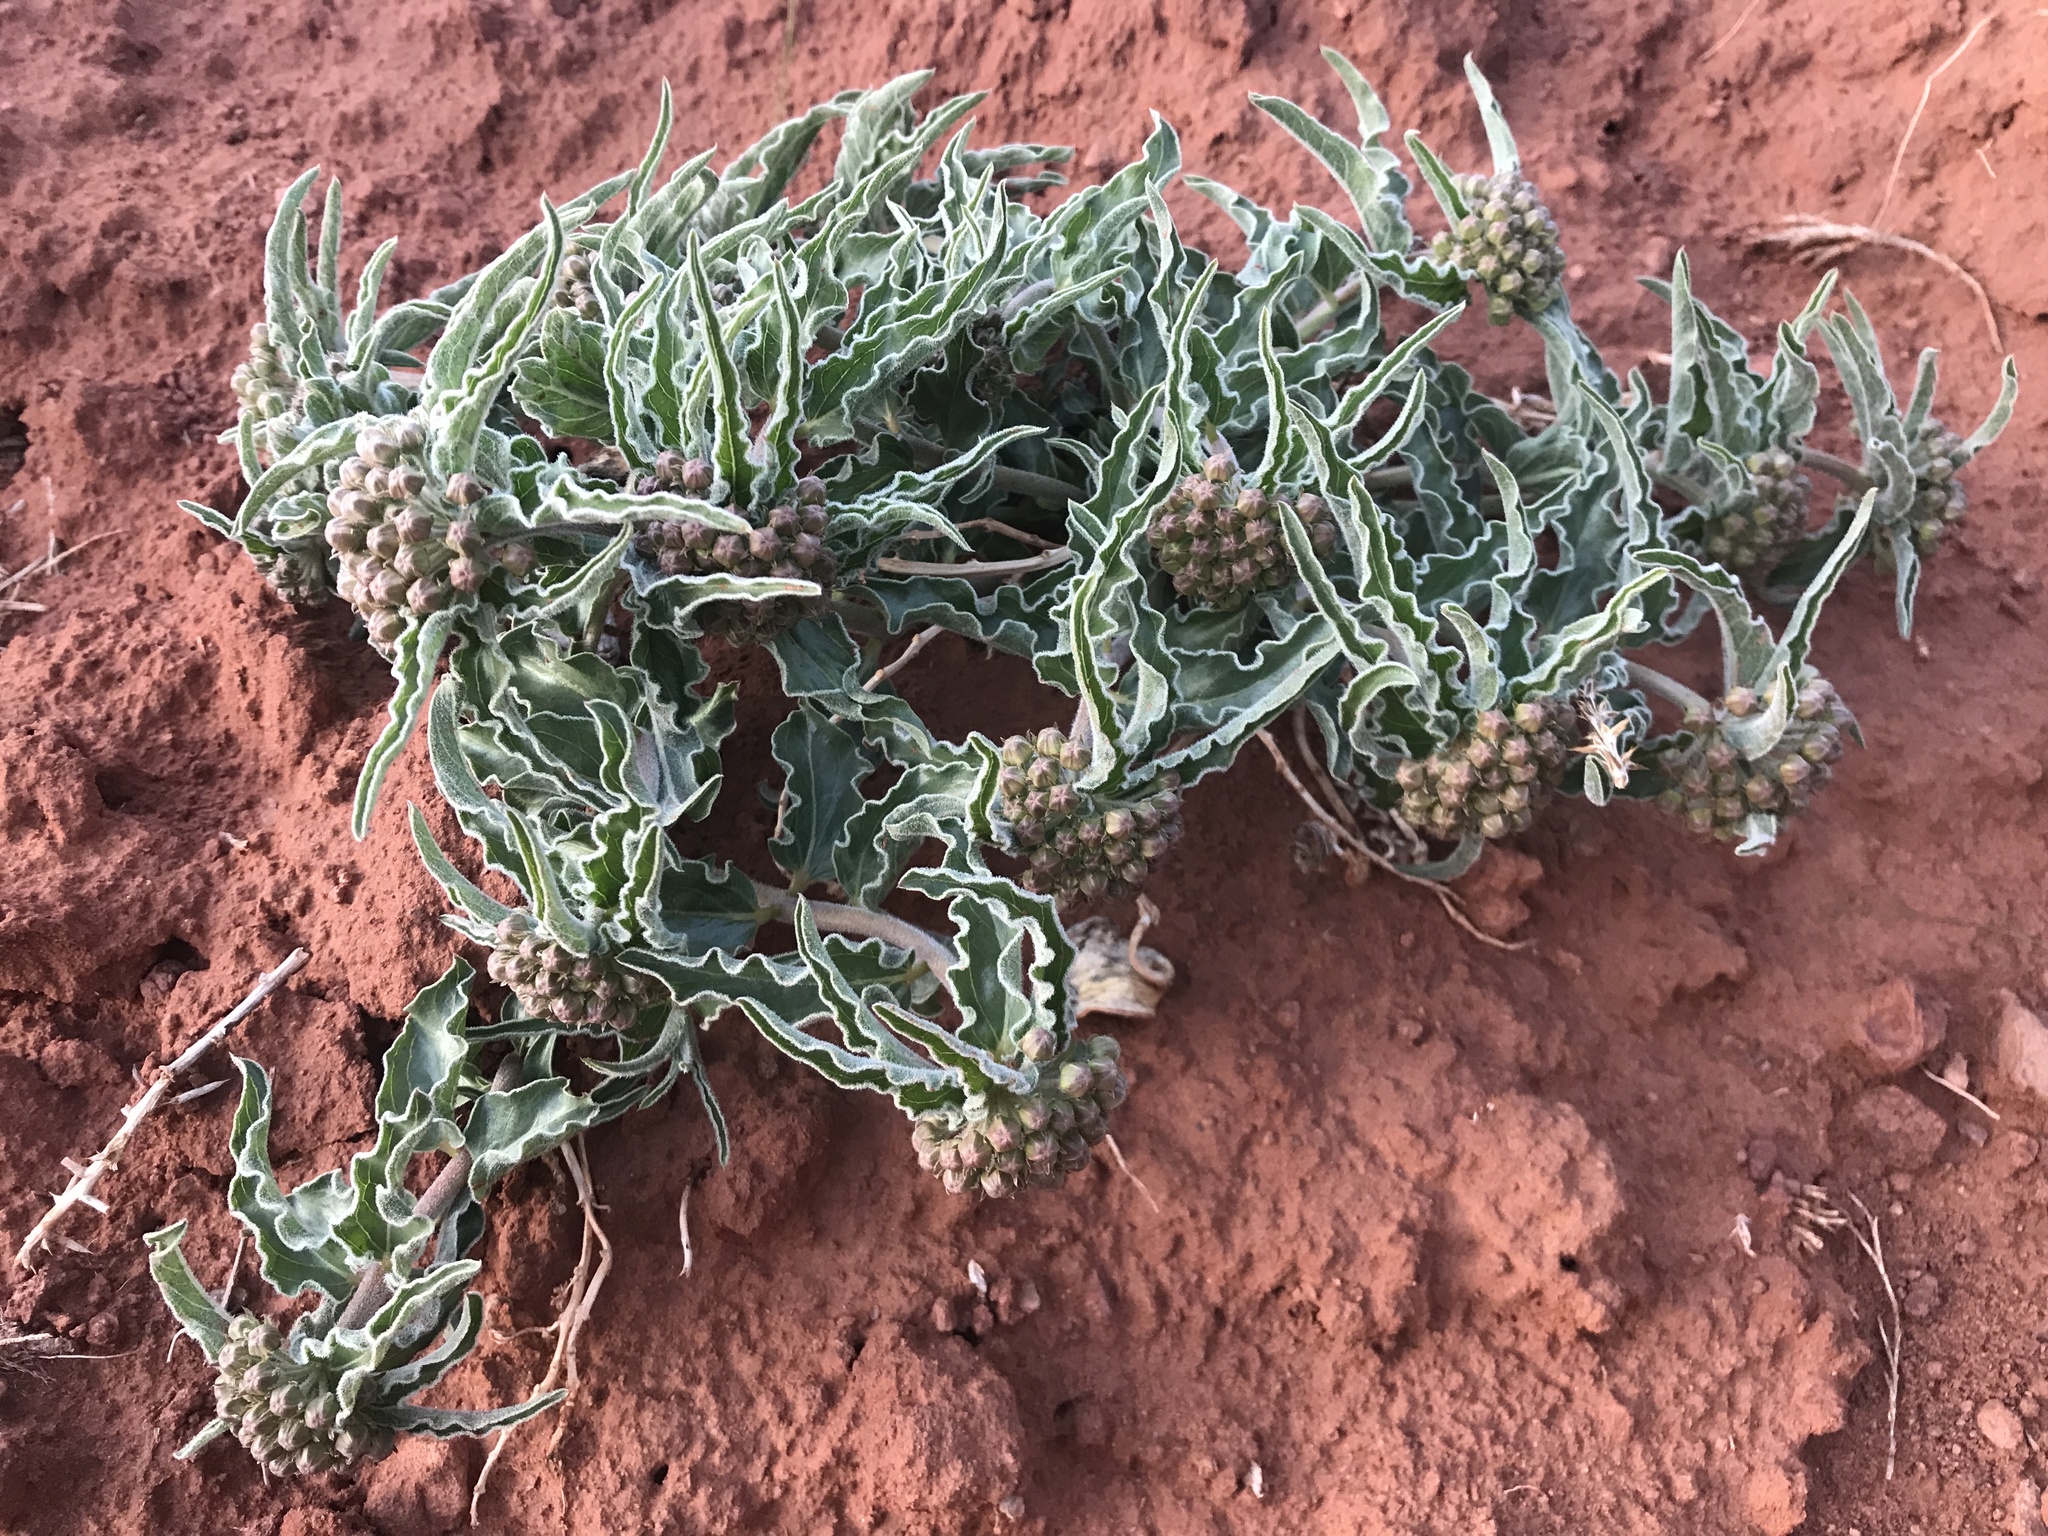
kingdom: Plantae
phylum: Tracheophyta
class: Magnoliopsida
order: Gentianales
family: Apocynaceae
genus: Asclepias
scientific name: Asclepias involucrata
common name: Dwarf milkweed
